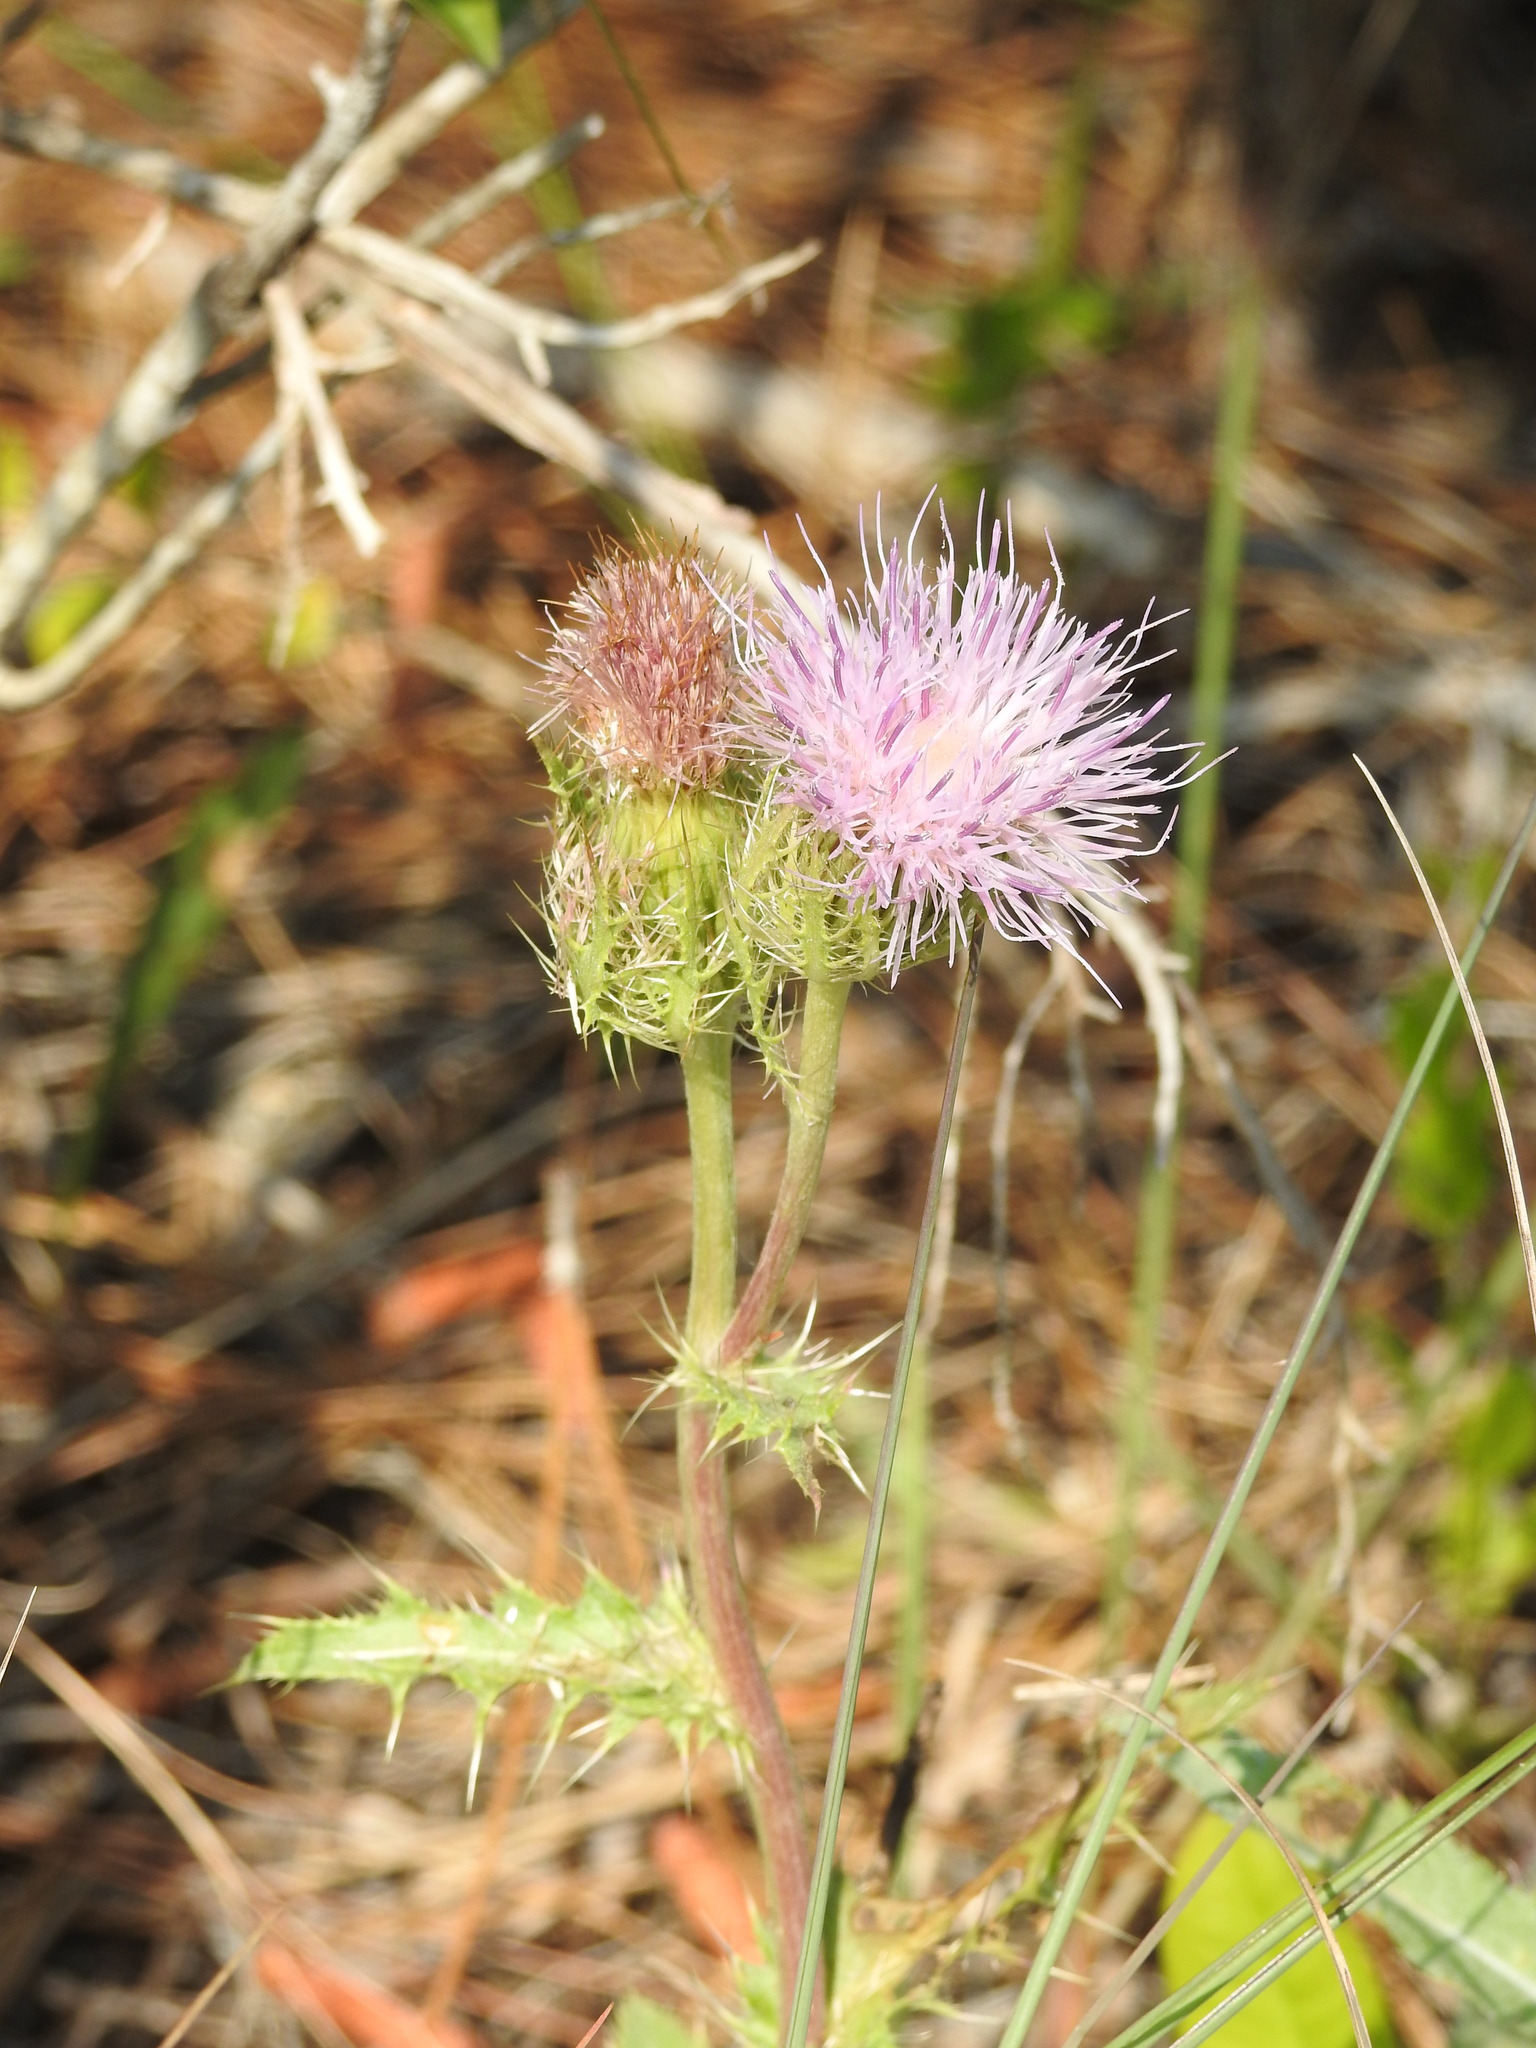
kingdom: Plantae
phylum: Tracheophyta
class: Magnoliopsida
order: Asterales
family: Asteraceae
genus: Cirsium
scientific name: Cirsium horridulum
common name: Bristly thistle
